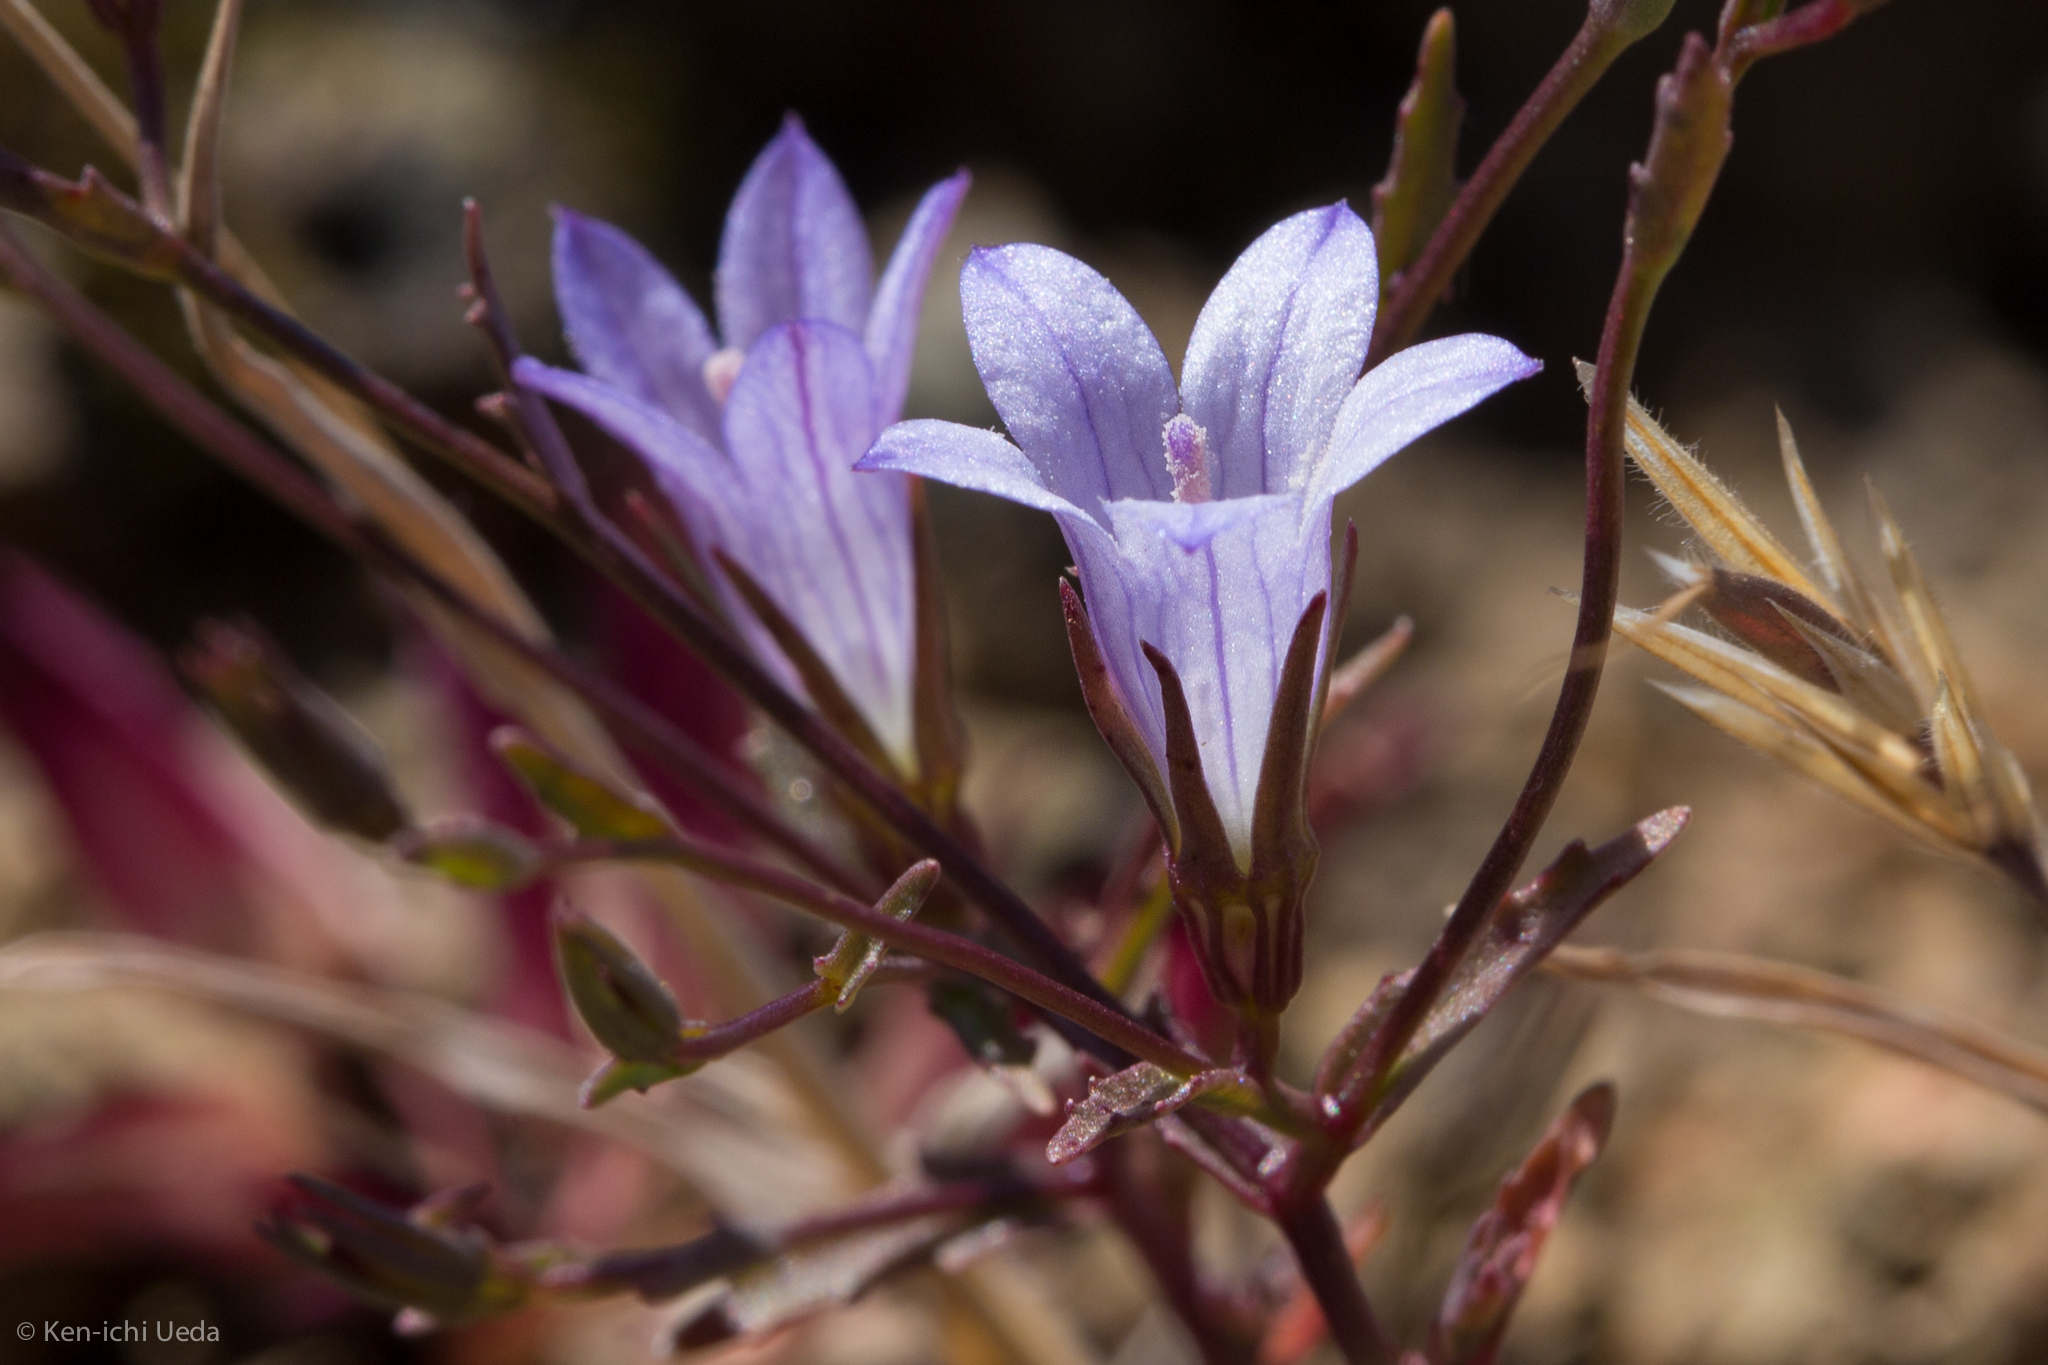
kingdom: Plantae
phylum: Tracheophyta
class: Magnoliopsida
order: Asterales
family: Campanulaceae
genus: Ravenella
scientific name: Ravenella exigua
